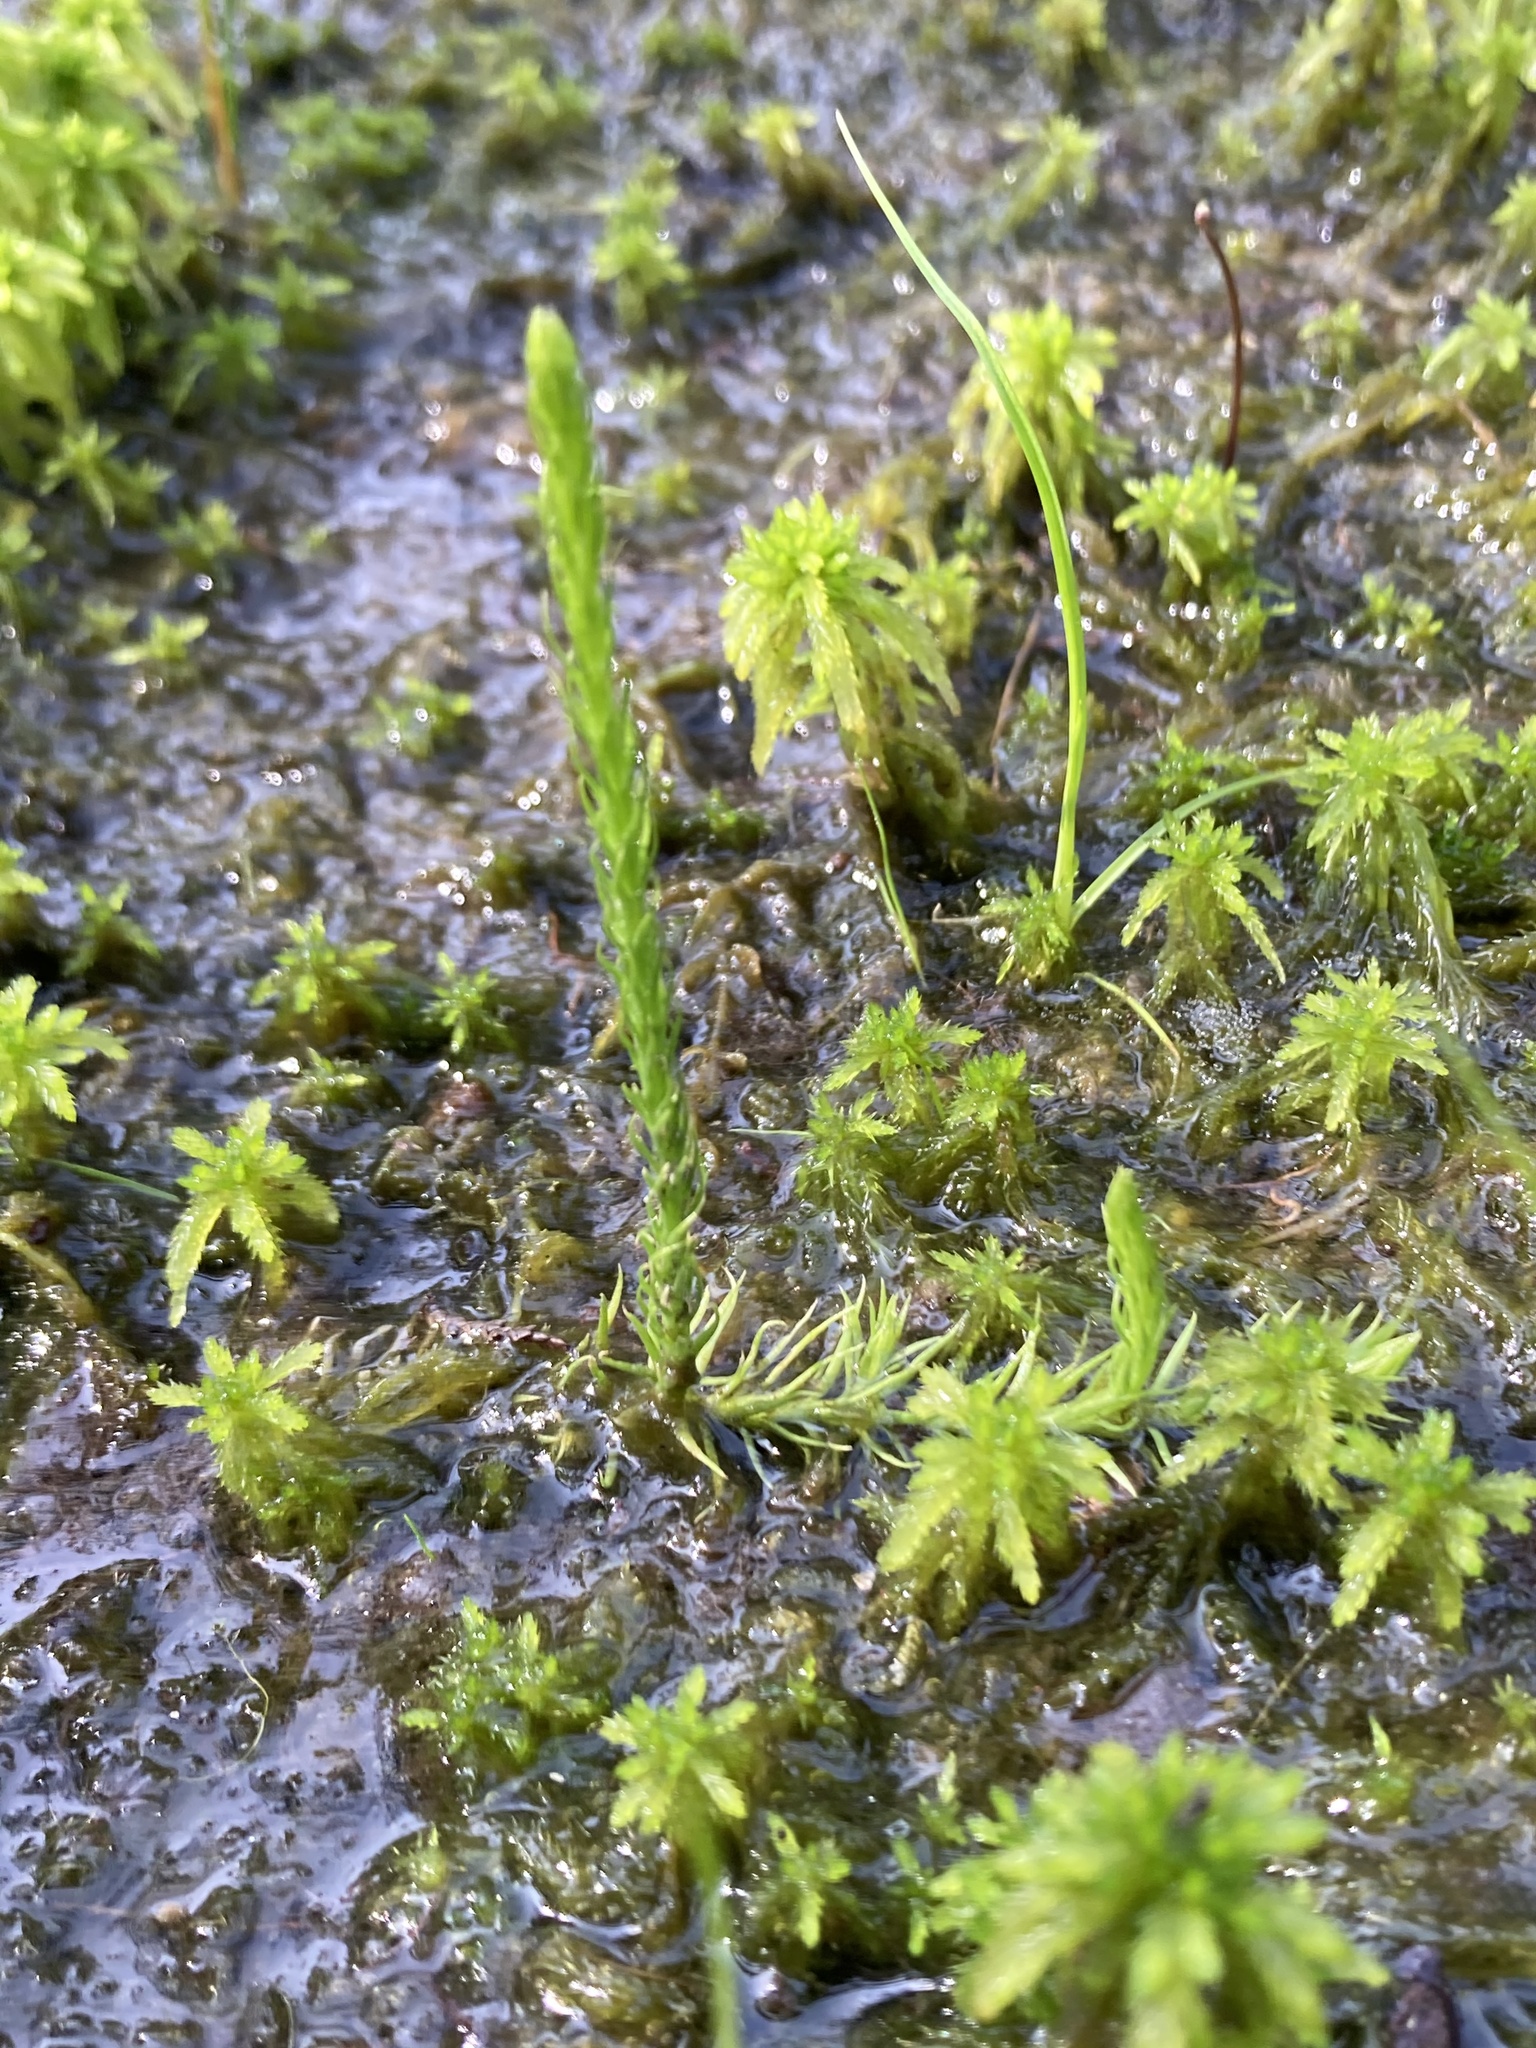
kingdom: Plantae
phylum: Tracheophyta
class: Lycopodiopsida
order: Lycopodiales
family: Lycopodiaceae
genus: Lycopodiella
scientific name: Lycopodiella appressa
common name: Appressed bog clubmoss
